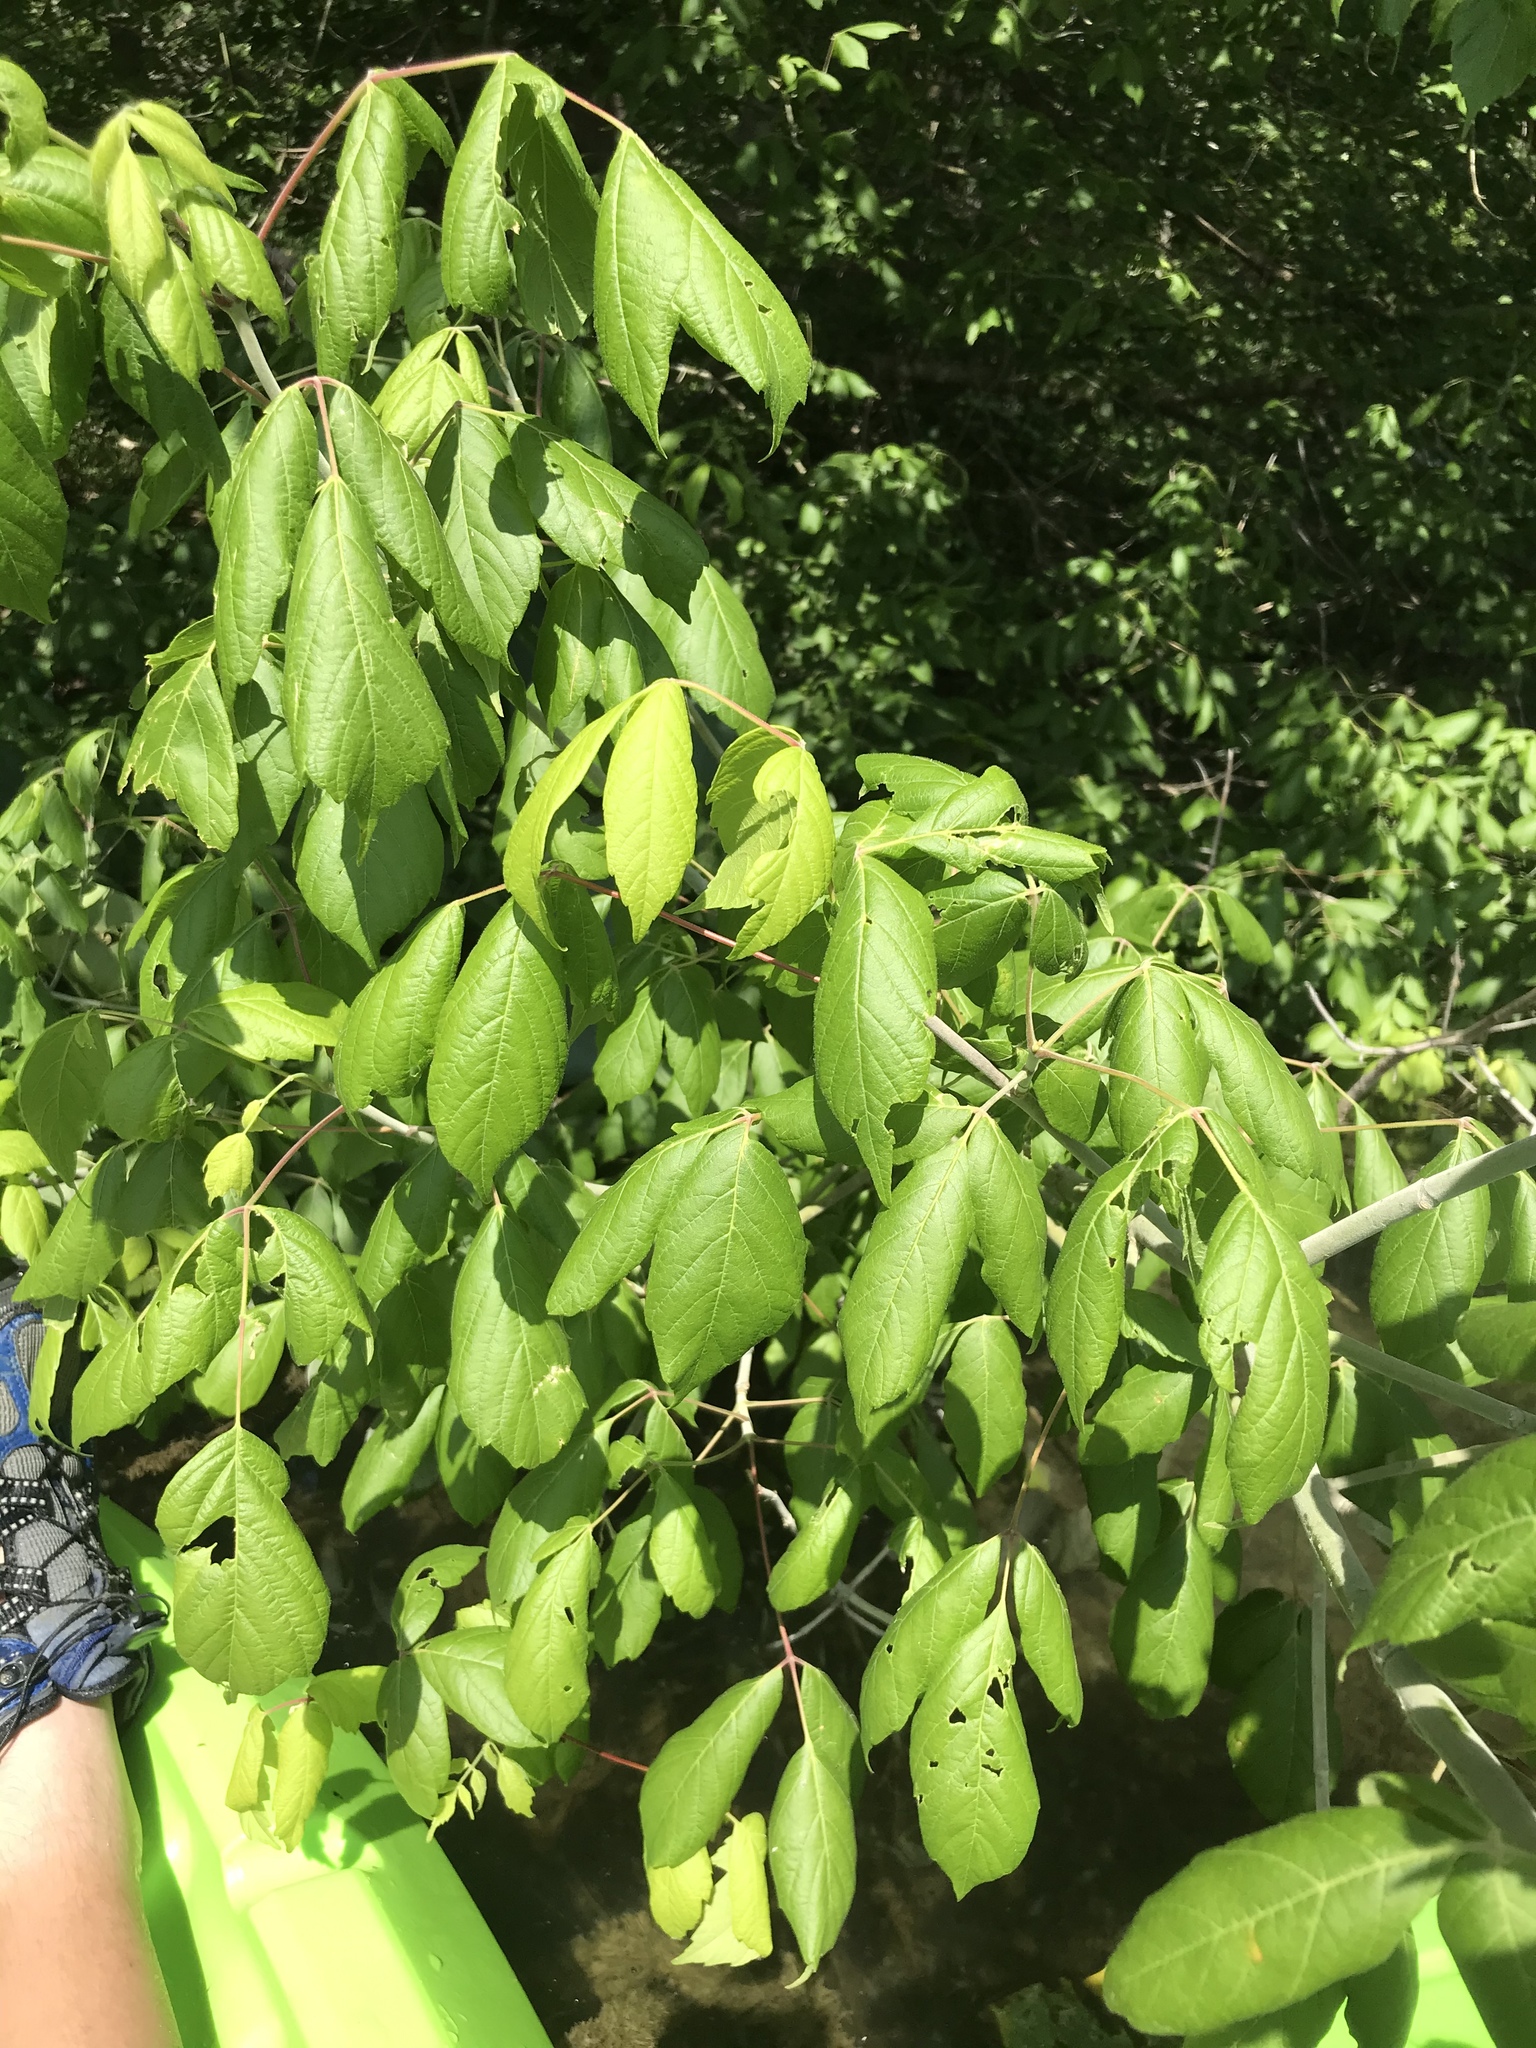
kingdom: Plantae
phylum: Tracheophyta
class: Magnoliopsida
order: Sapindales
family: Sapindaceae
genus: Acer
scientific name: Acer negundo
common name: Ashleaf maple
